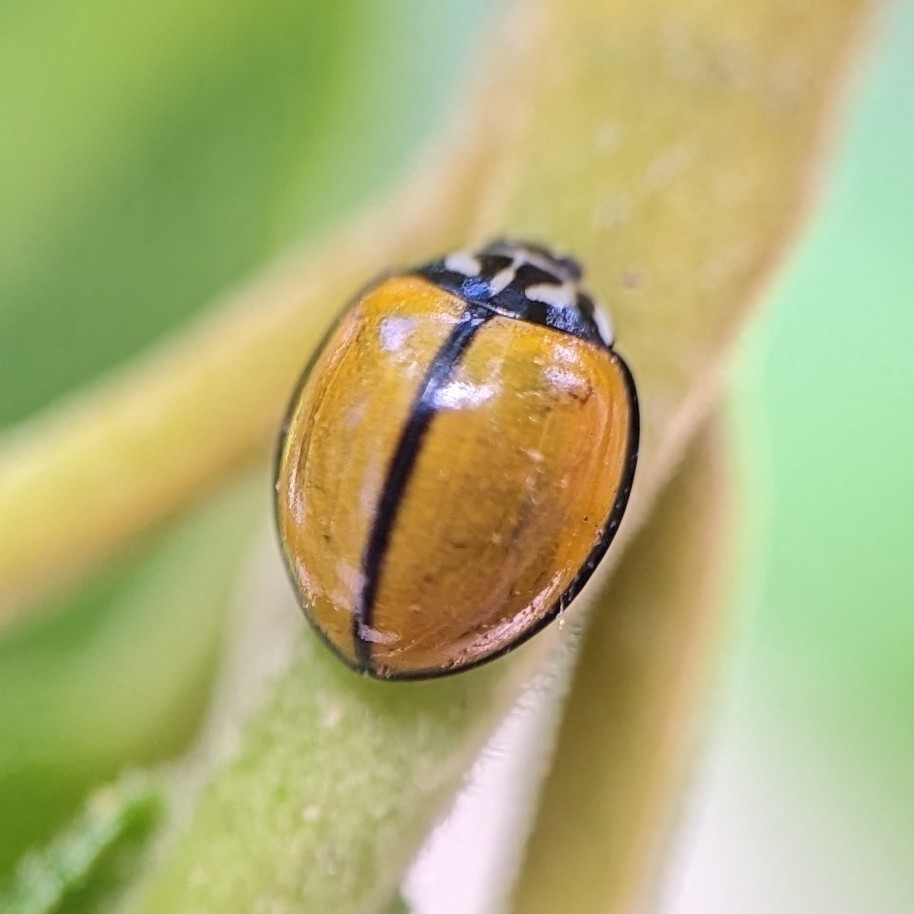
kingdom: Animalia
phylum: Arthropoda
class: Insecta
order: Coleoptera
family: Coccinellidae
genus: Oenopia
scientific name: Oenopia
